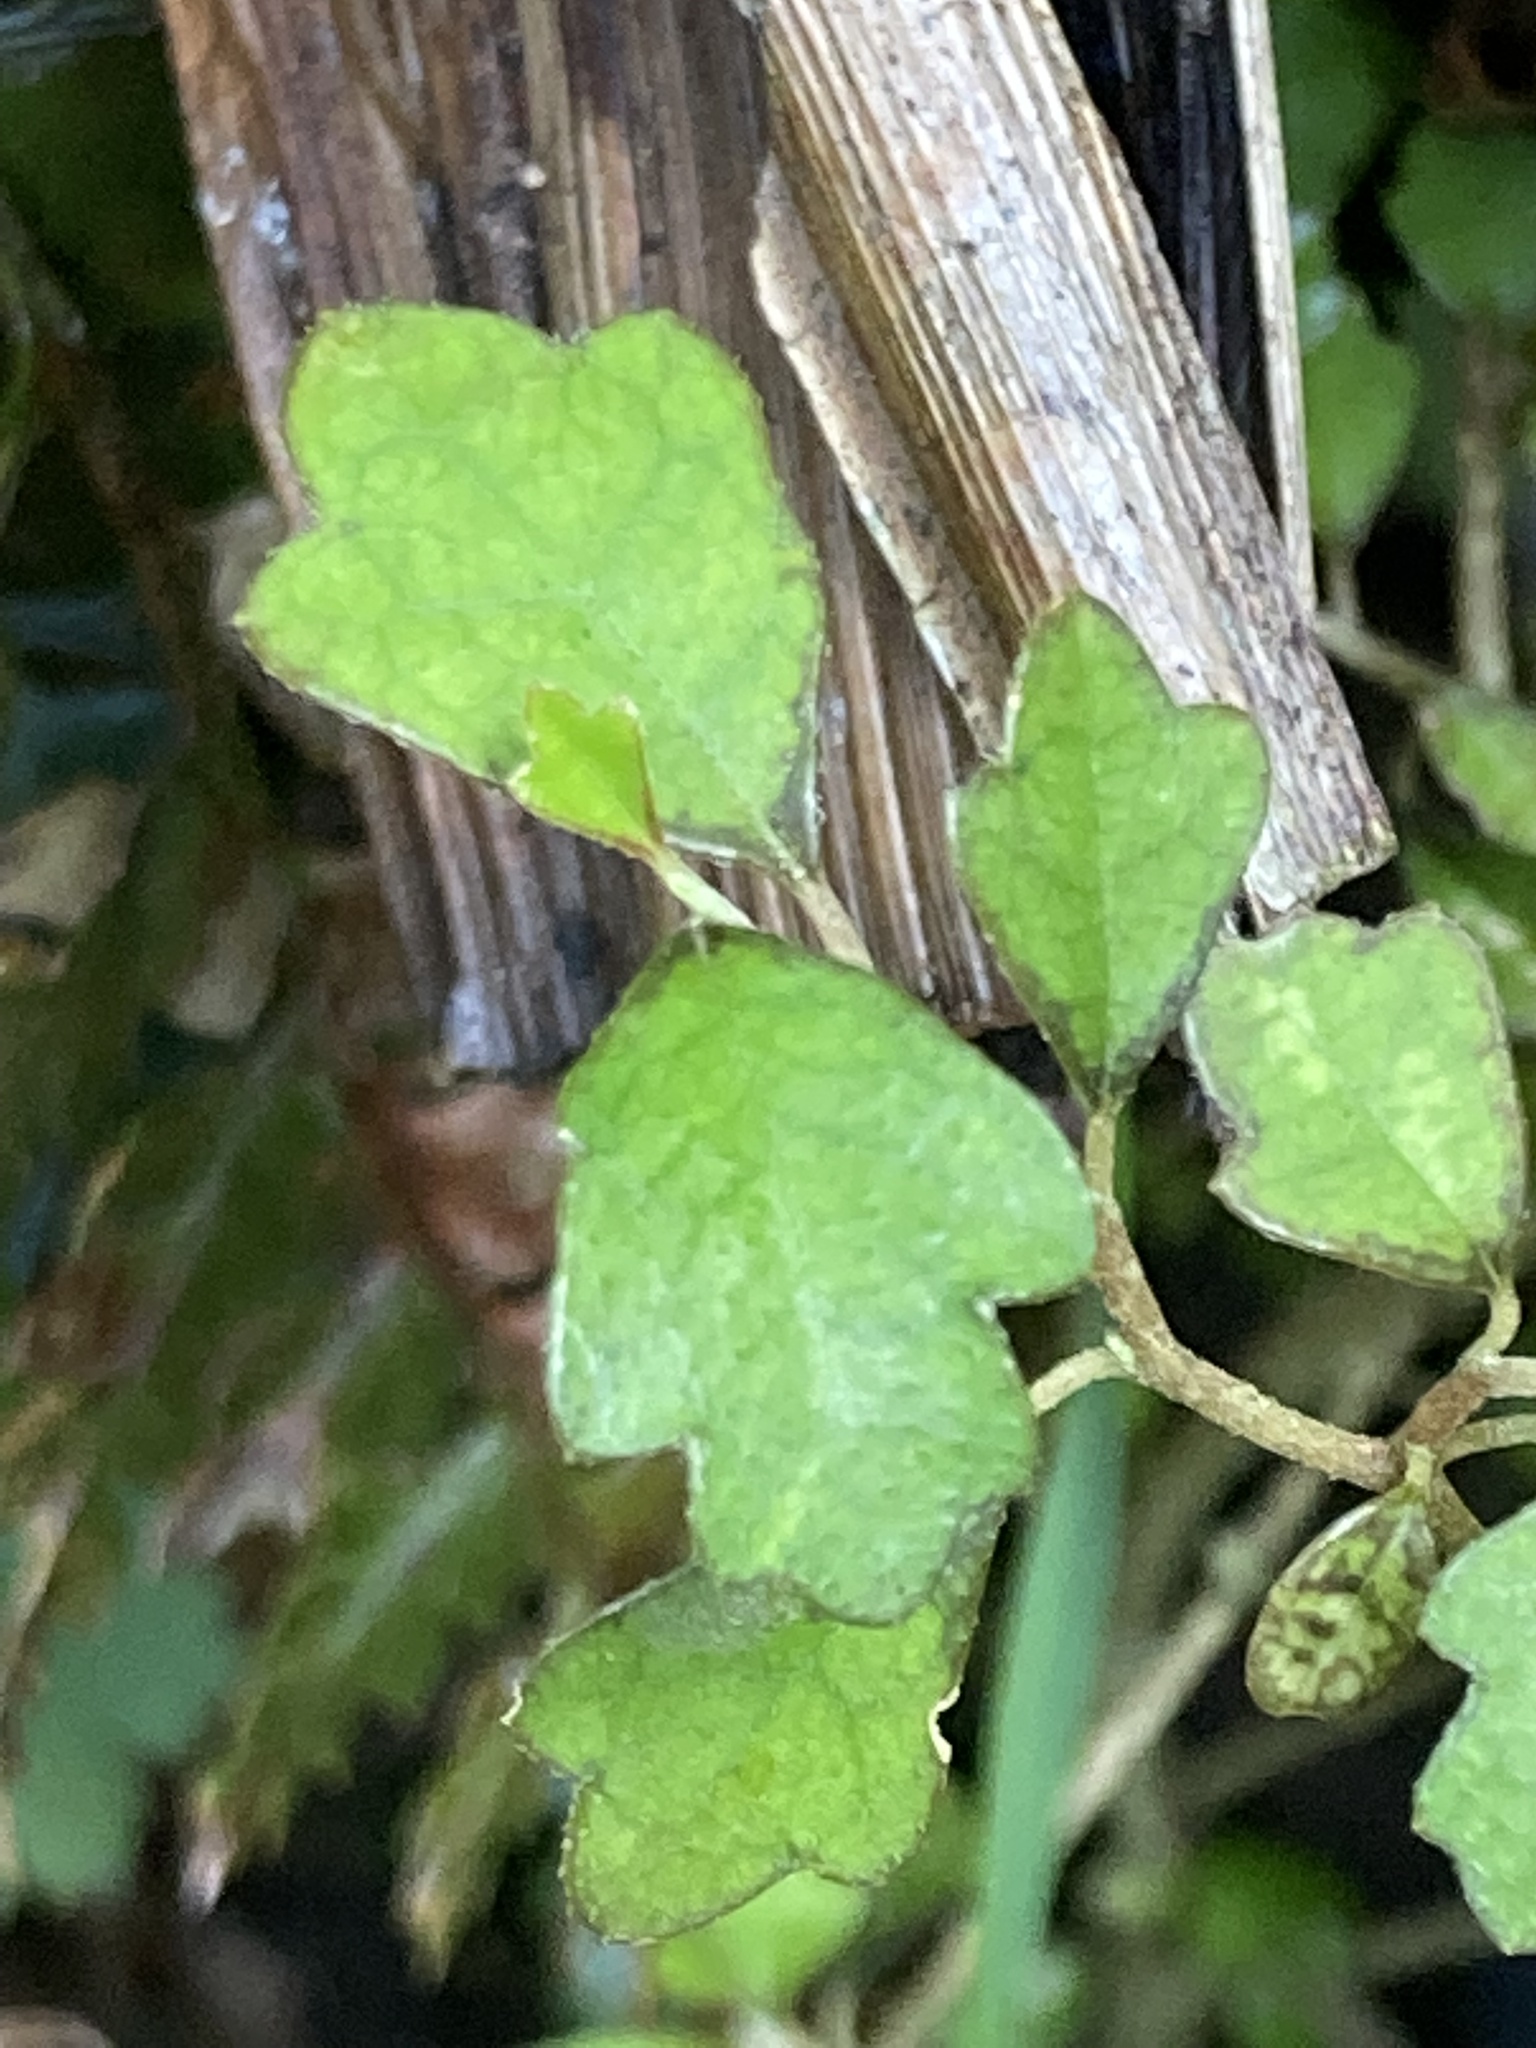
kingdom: Plantae
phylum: Tracheophyta
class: Magnoliopsida
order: Apiales
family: Pennantiaceae
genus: Pennantia
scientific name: Pennantia corymbosa
